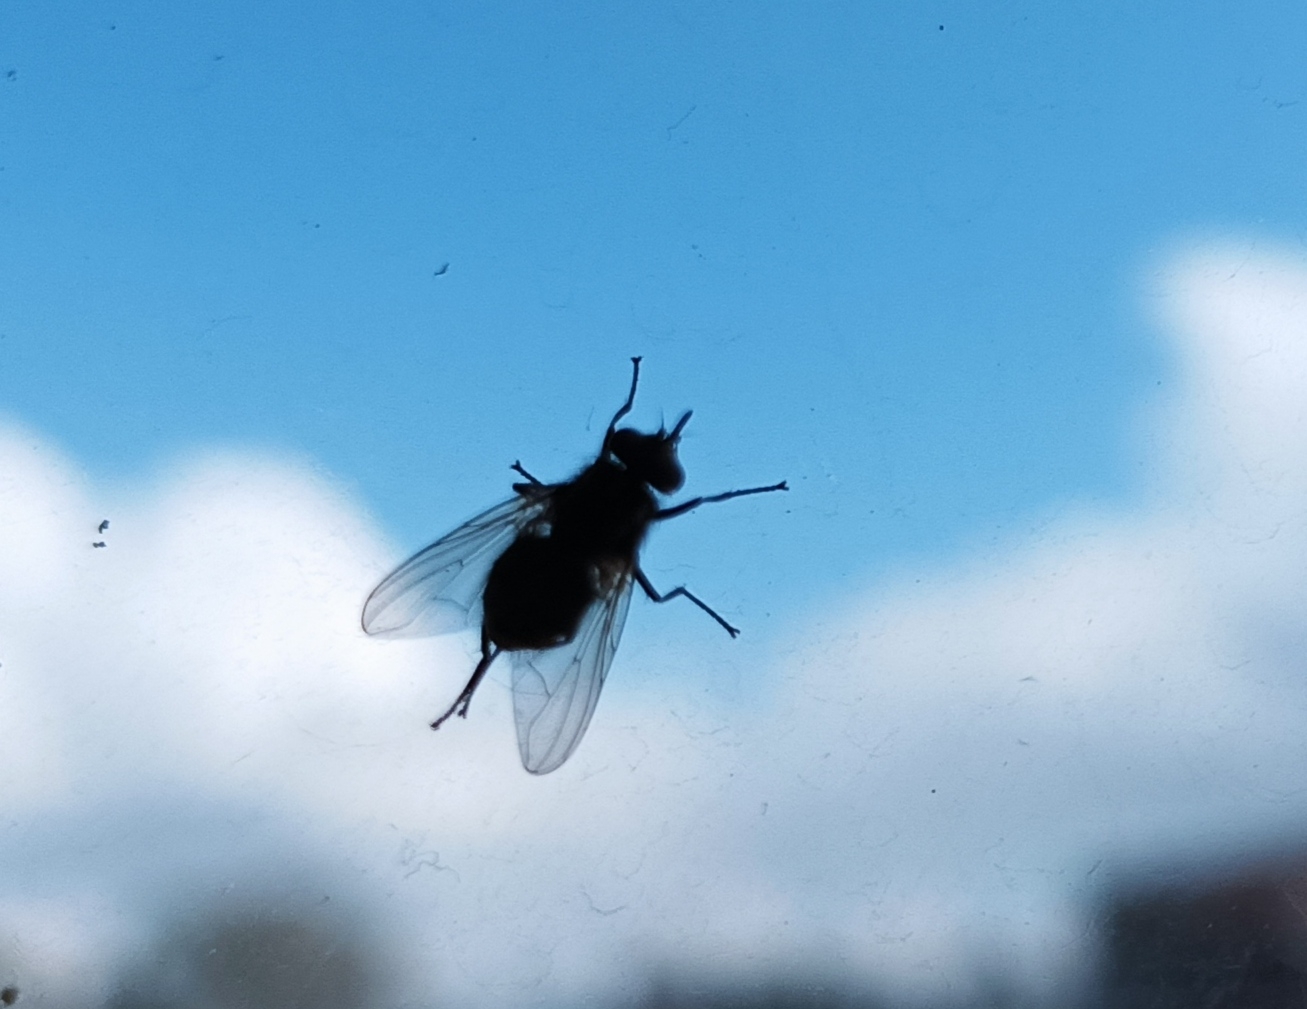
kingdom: Animalia
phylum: Arthropoda
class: Insecta
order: Diptera
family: Muscidae
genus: Stomoxys
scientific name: Stomoxys calcitrans
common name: Stable fly
